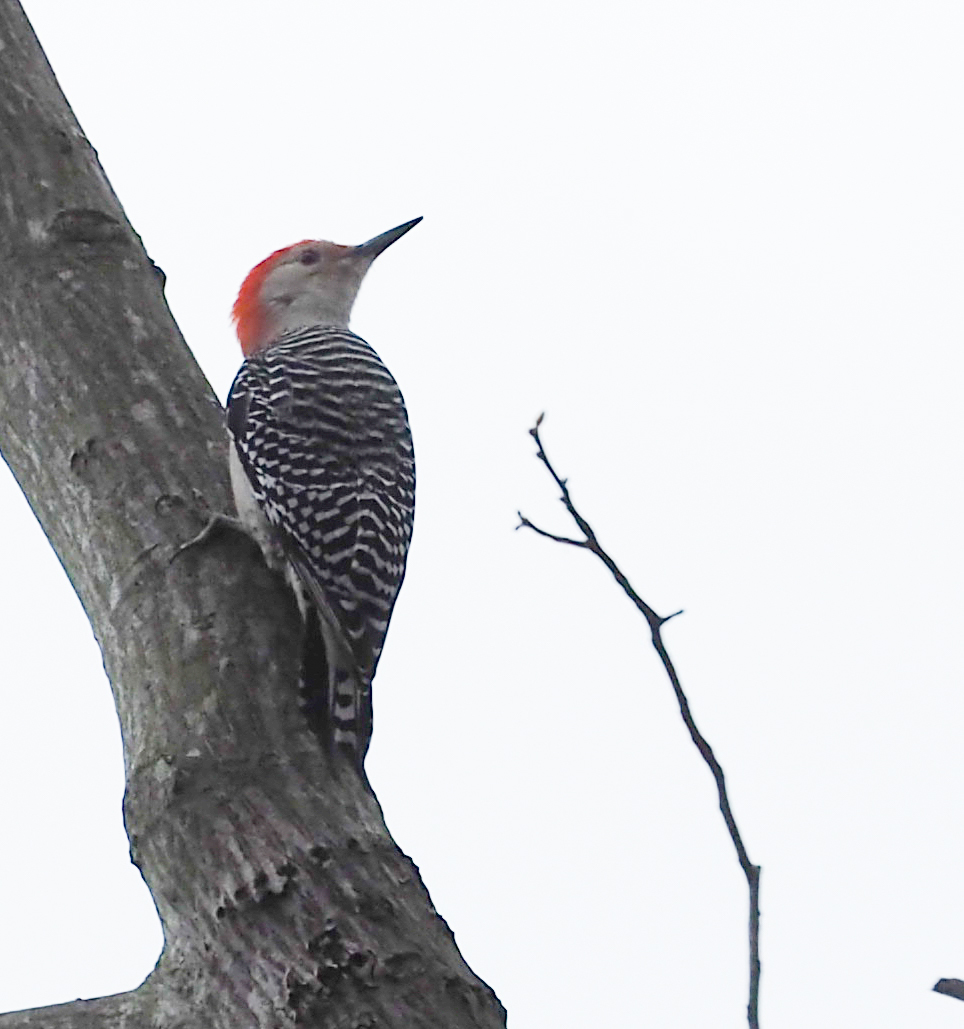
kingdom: Animalia
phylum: Chordata
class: Aves
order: Piciformes
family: Picidae
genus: Melanerpes
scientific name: Melanerpes carolinus
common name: Red-bellied woodpecker
